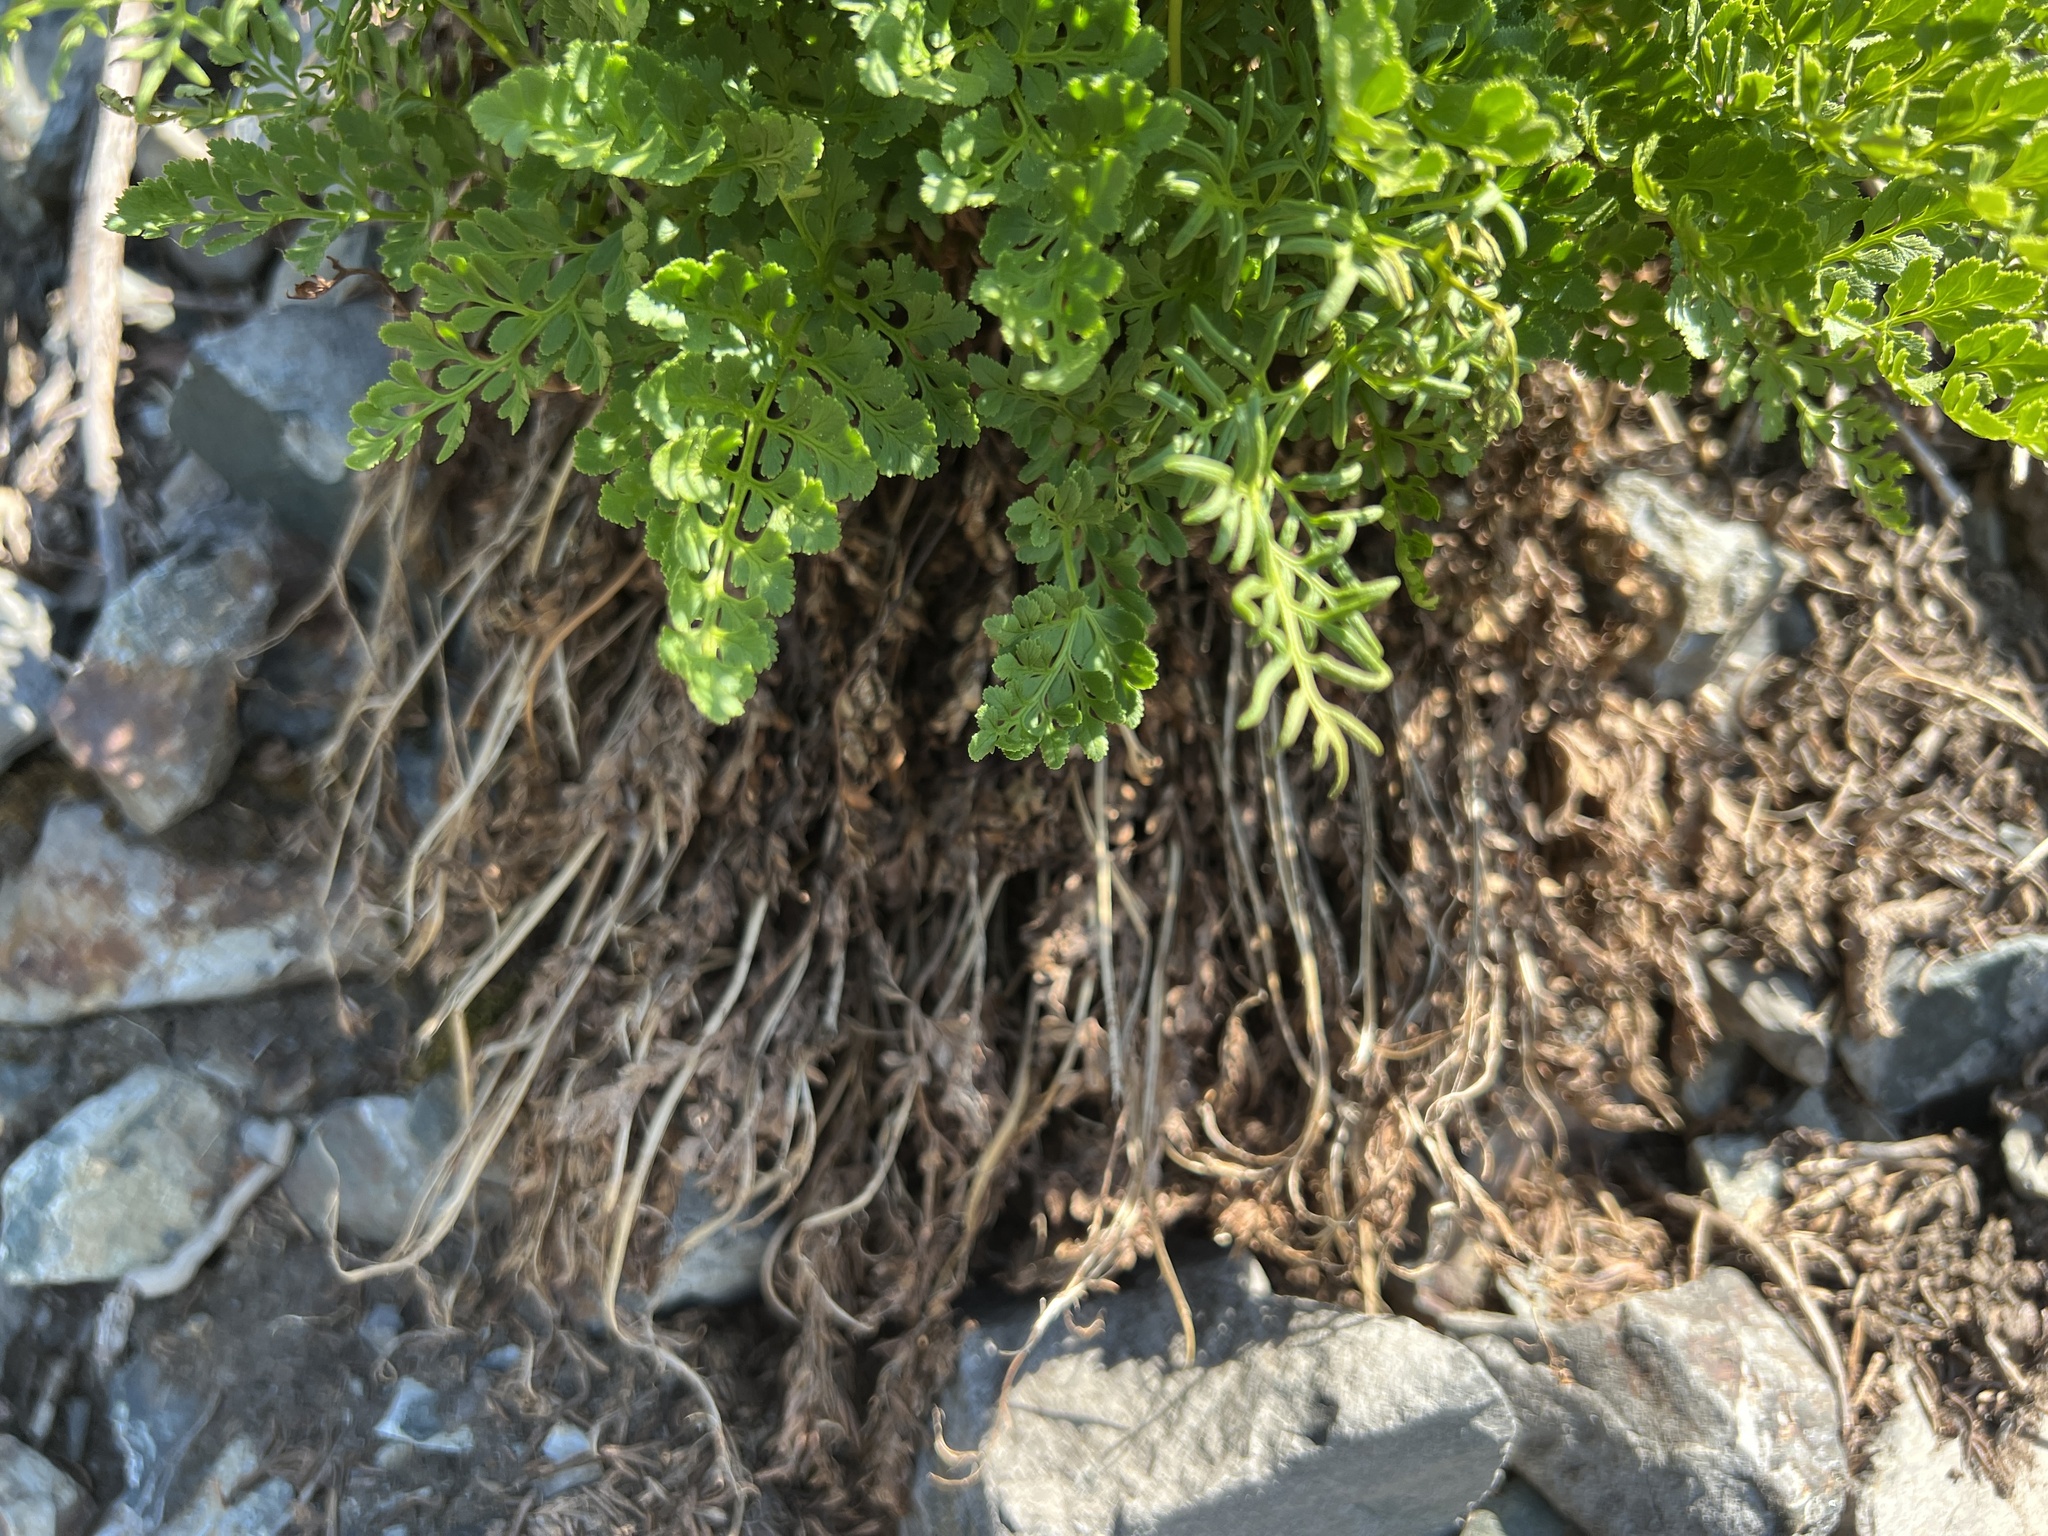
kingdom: Plantae
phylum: Tracheophyta
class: Polypodiopsida
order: Polypodiales
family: Pteridaceae
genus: Cryptogramma
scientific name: Cryptogramma acrostichoides
